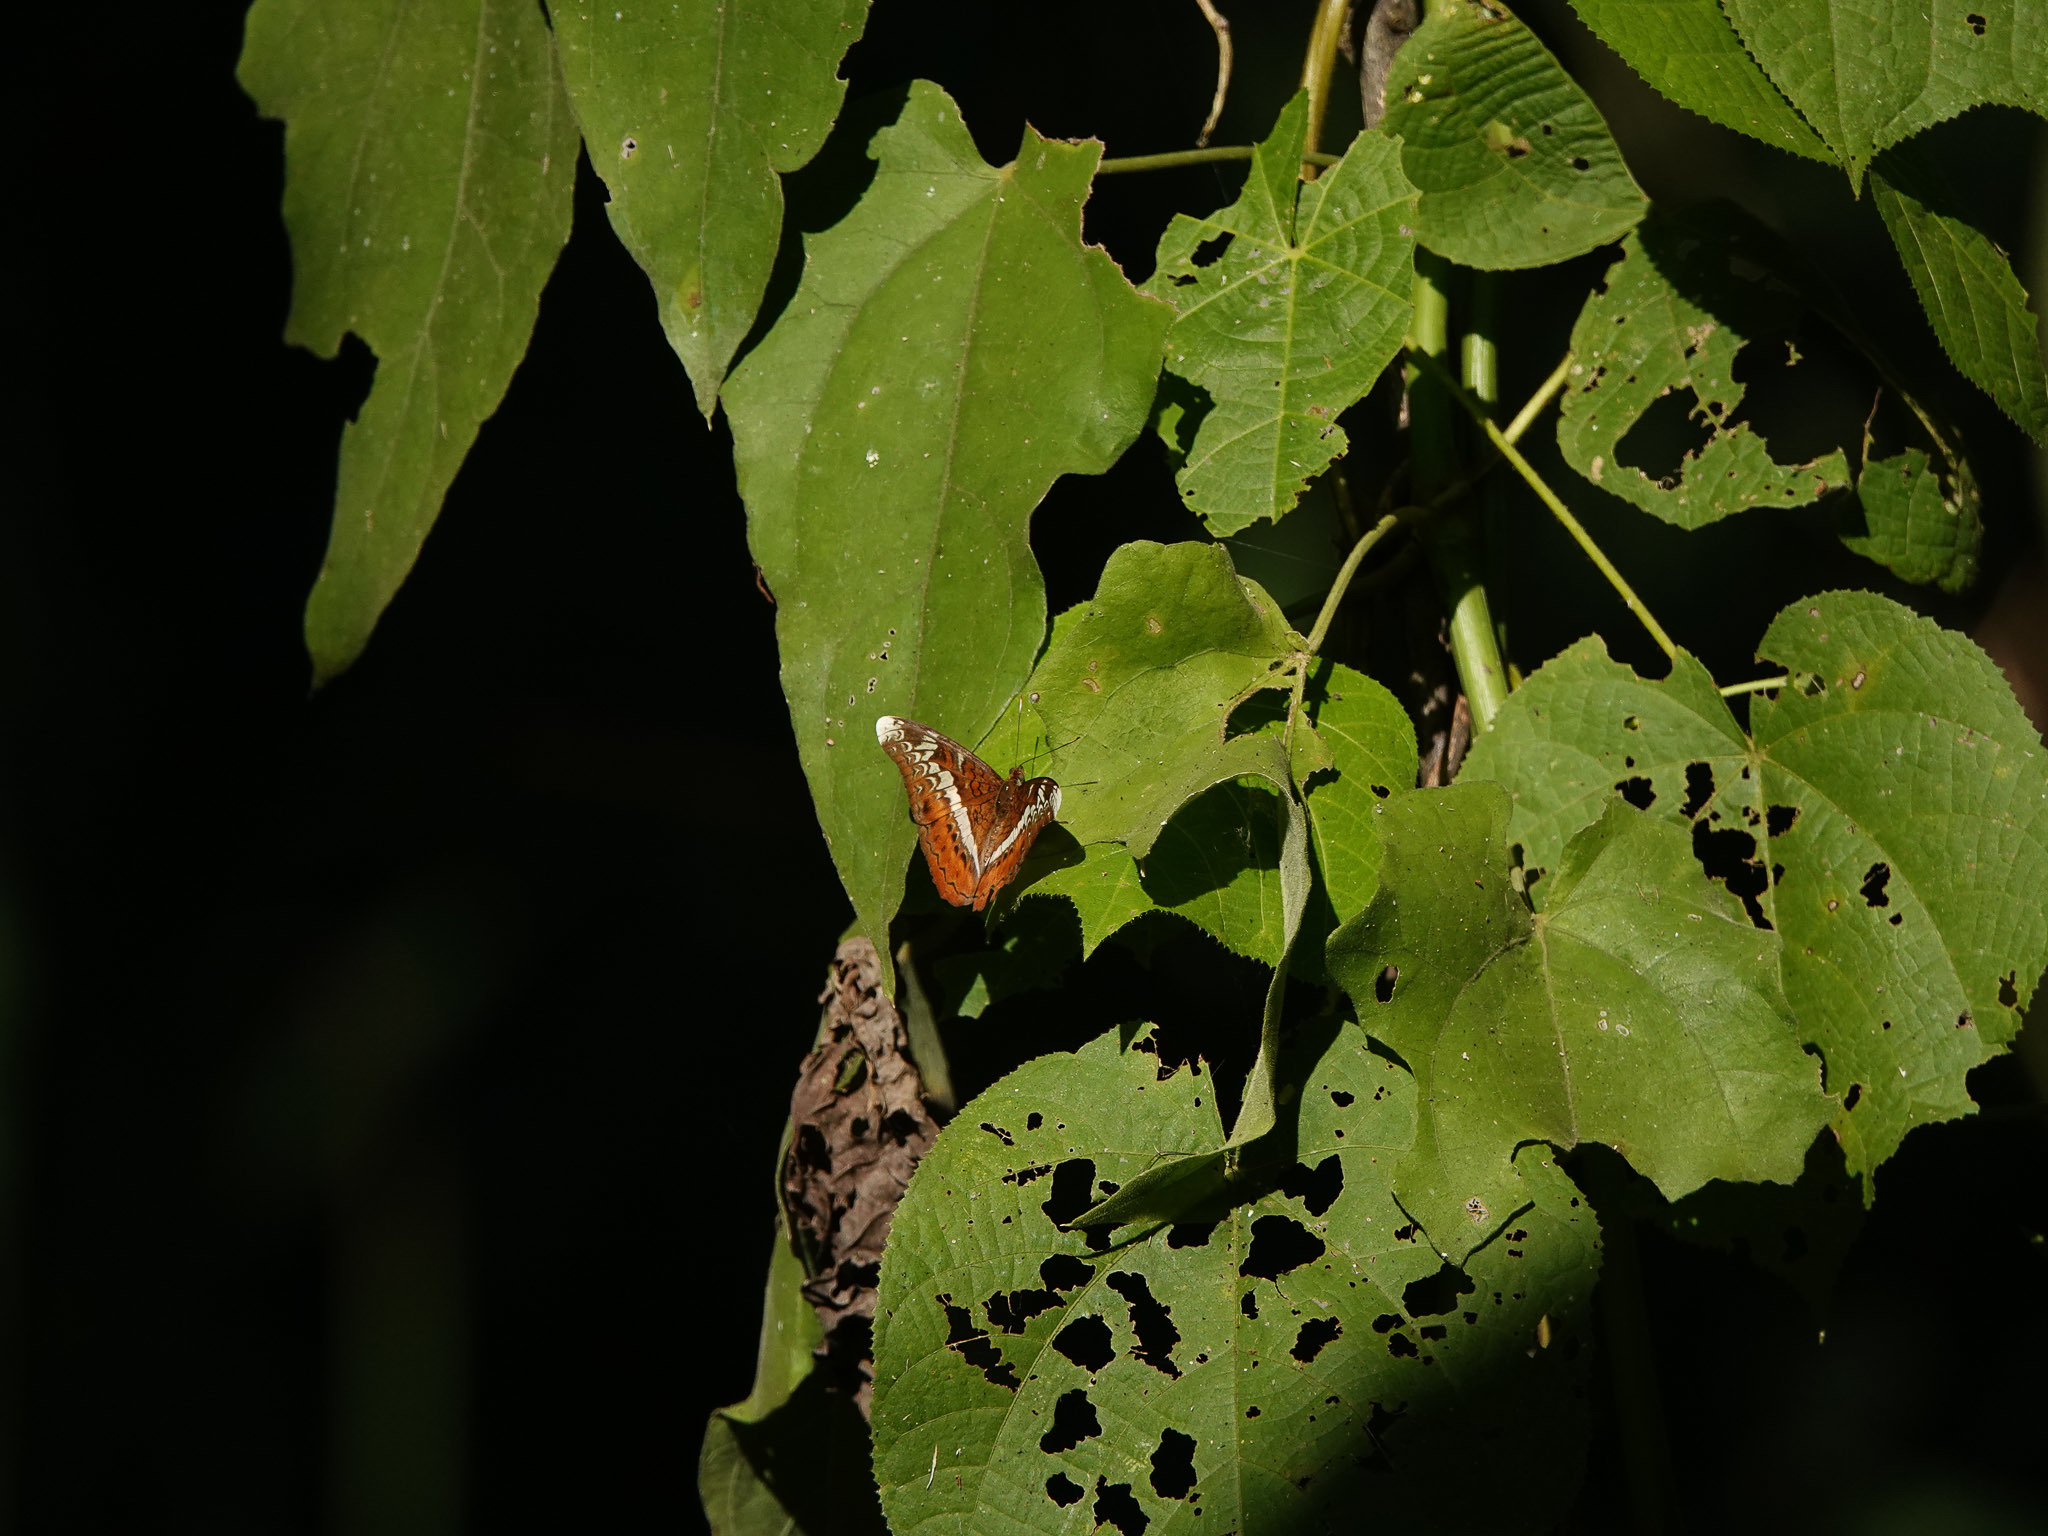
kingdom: Animalia
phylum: Arthropoda
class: Insecta
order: Lepidoptera
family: Nymphalidae
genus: Lebadea
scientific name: Lebadea martha
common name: Knight
